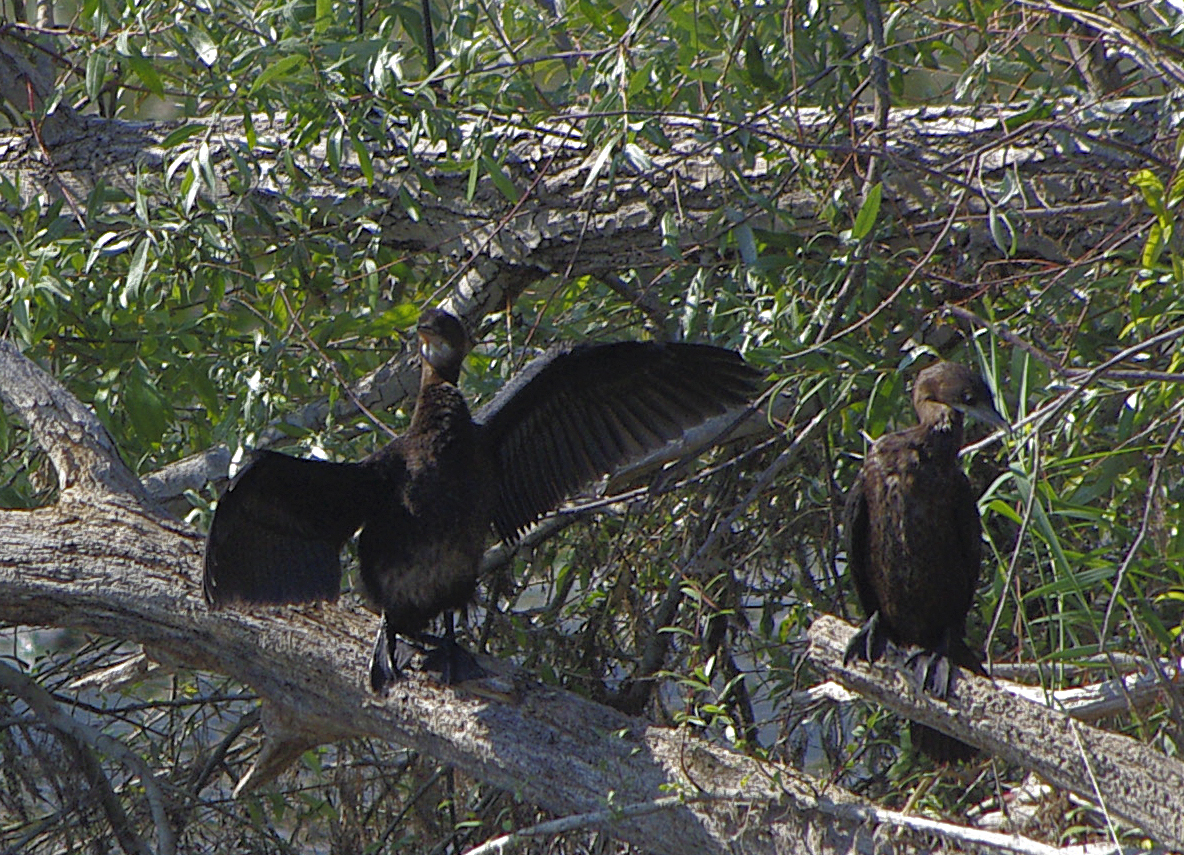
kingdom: Animalia
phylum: Chordata
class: Aves
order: Suliformes
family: Phalacrocoracidae
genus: Microcarbo
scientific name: Microcarbo pygmaeus
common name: Pygmy cormorant
